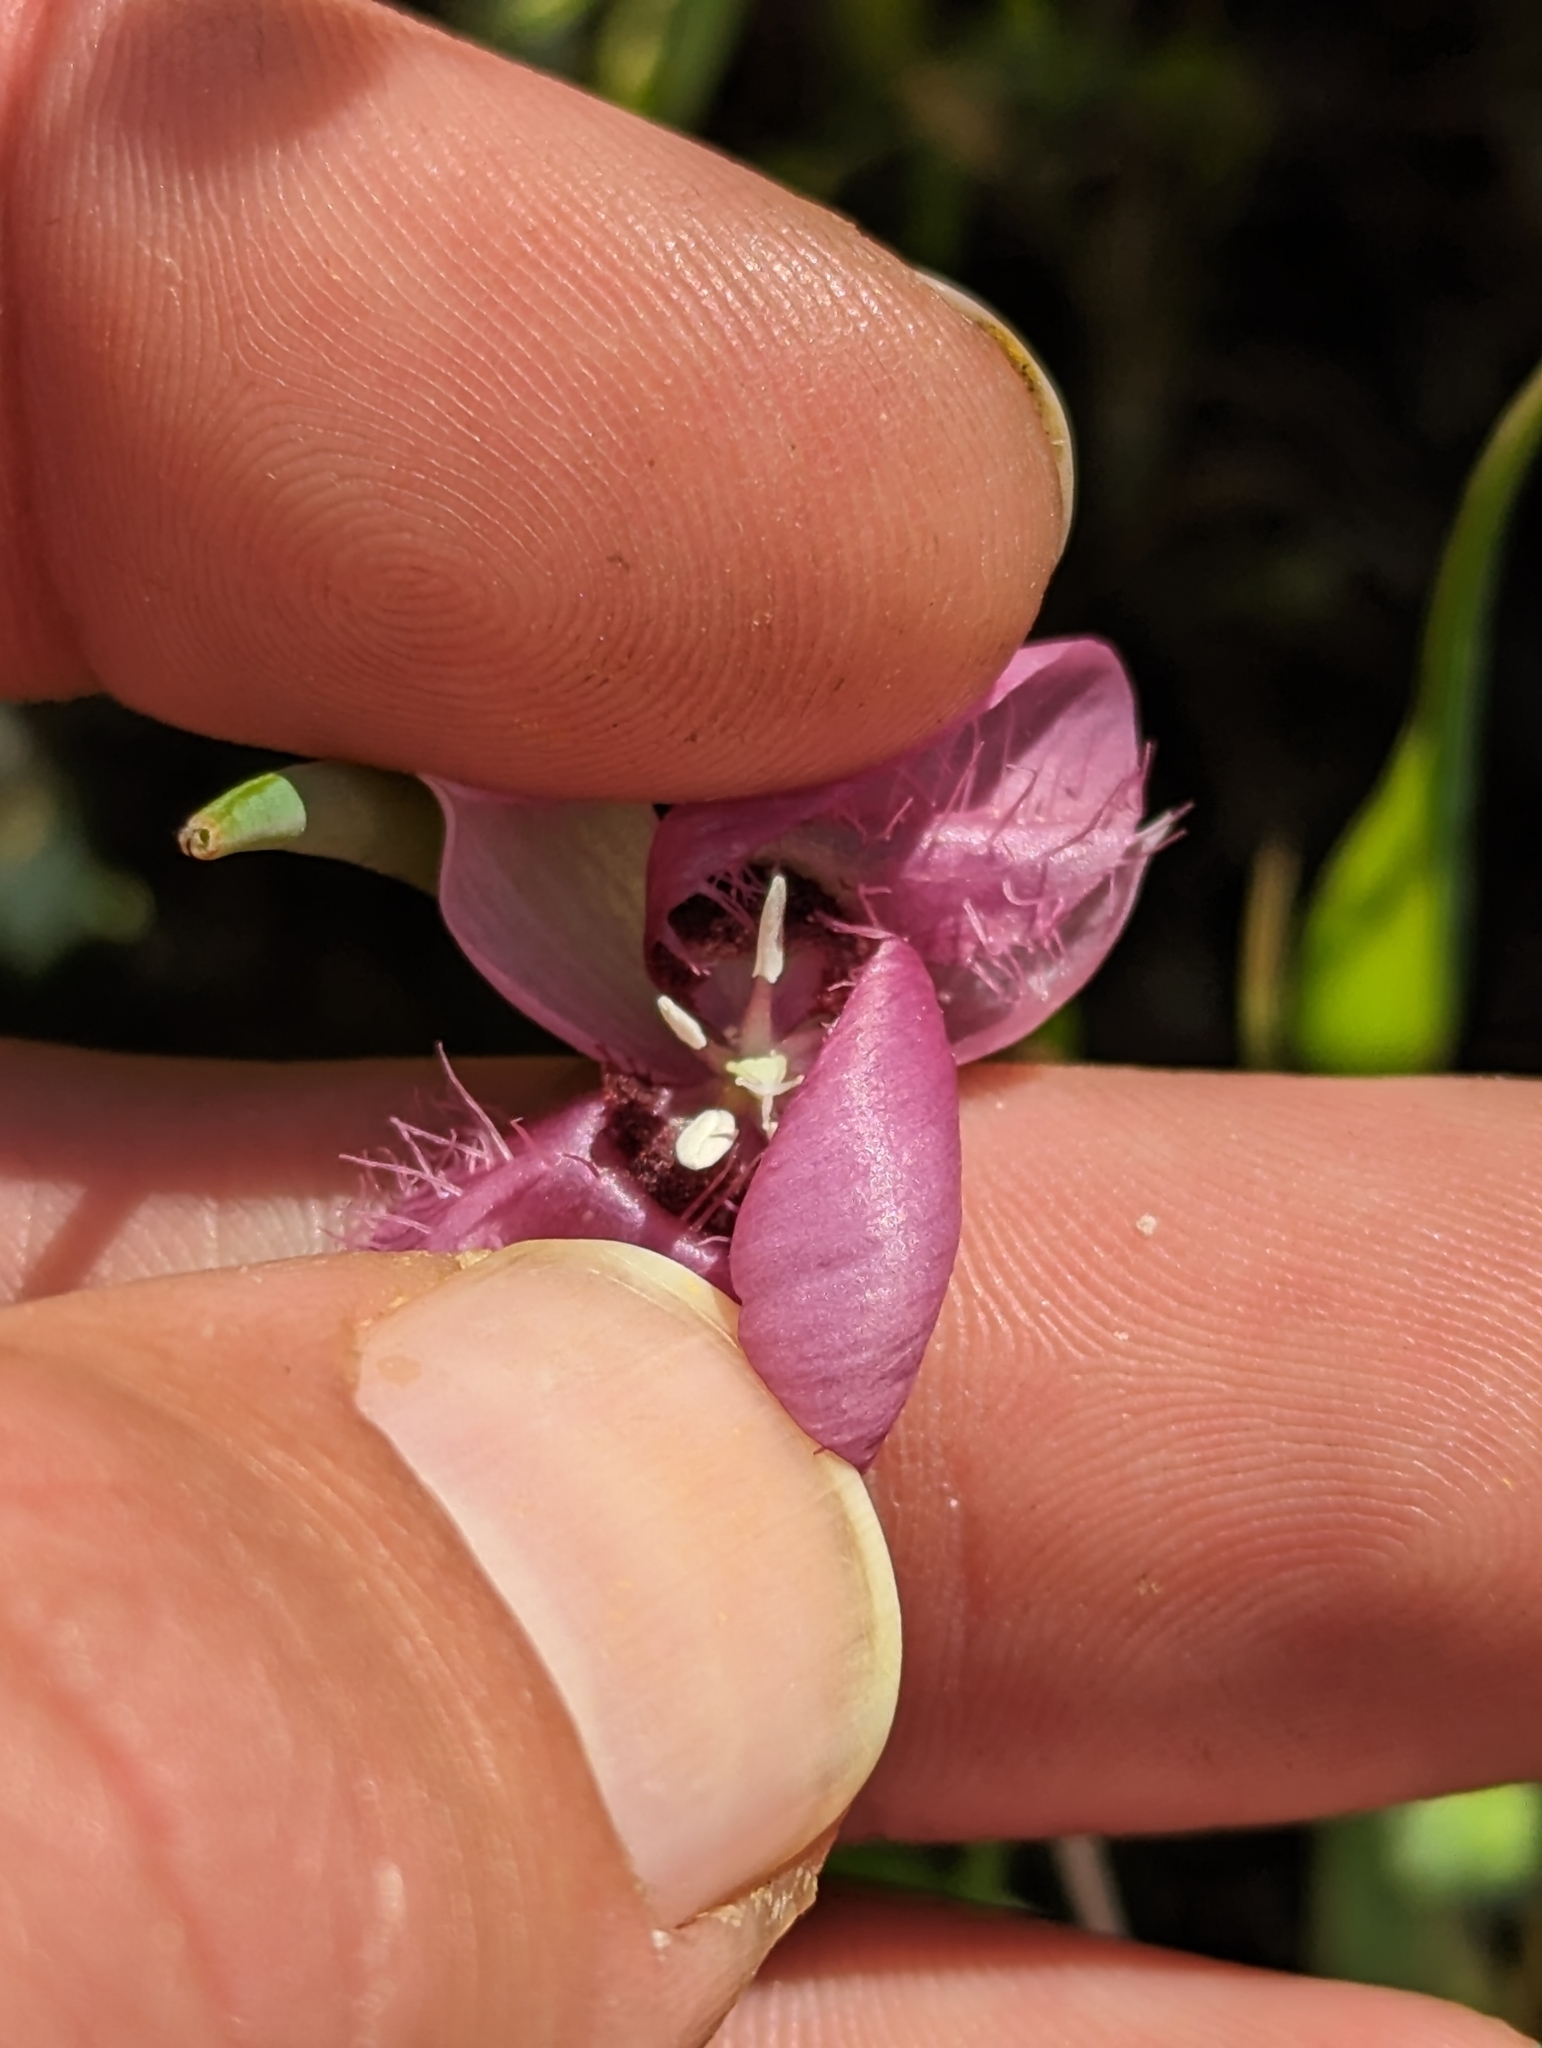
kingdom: Plantae
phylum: Tracheophyta
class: Liliopsida
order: Liliales
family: Liliaceae
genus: Calochortus
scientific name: Calochortus amoenus
